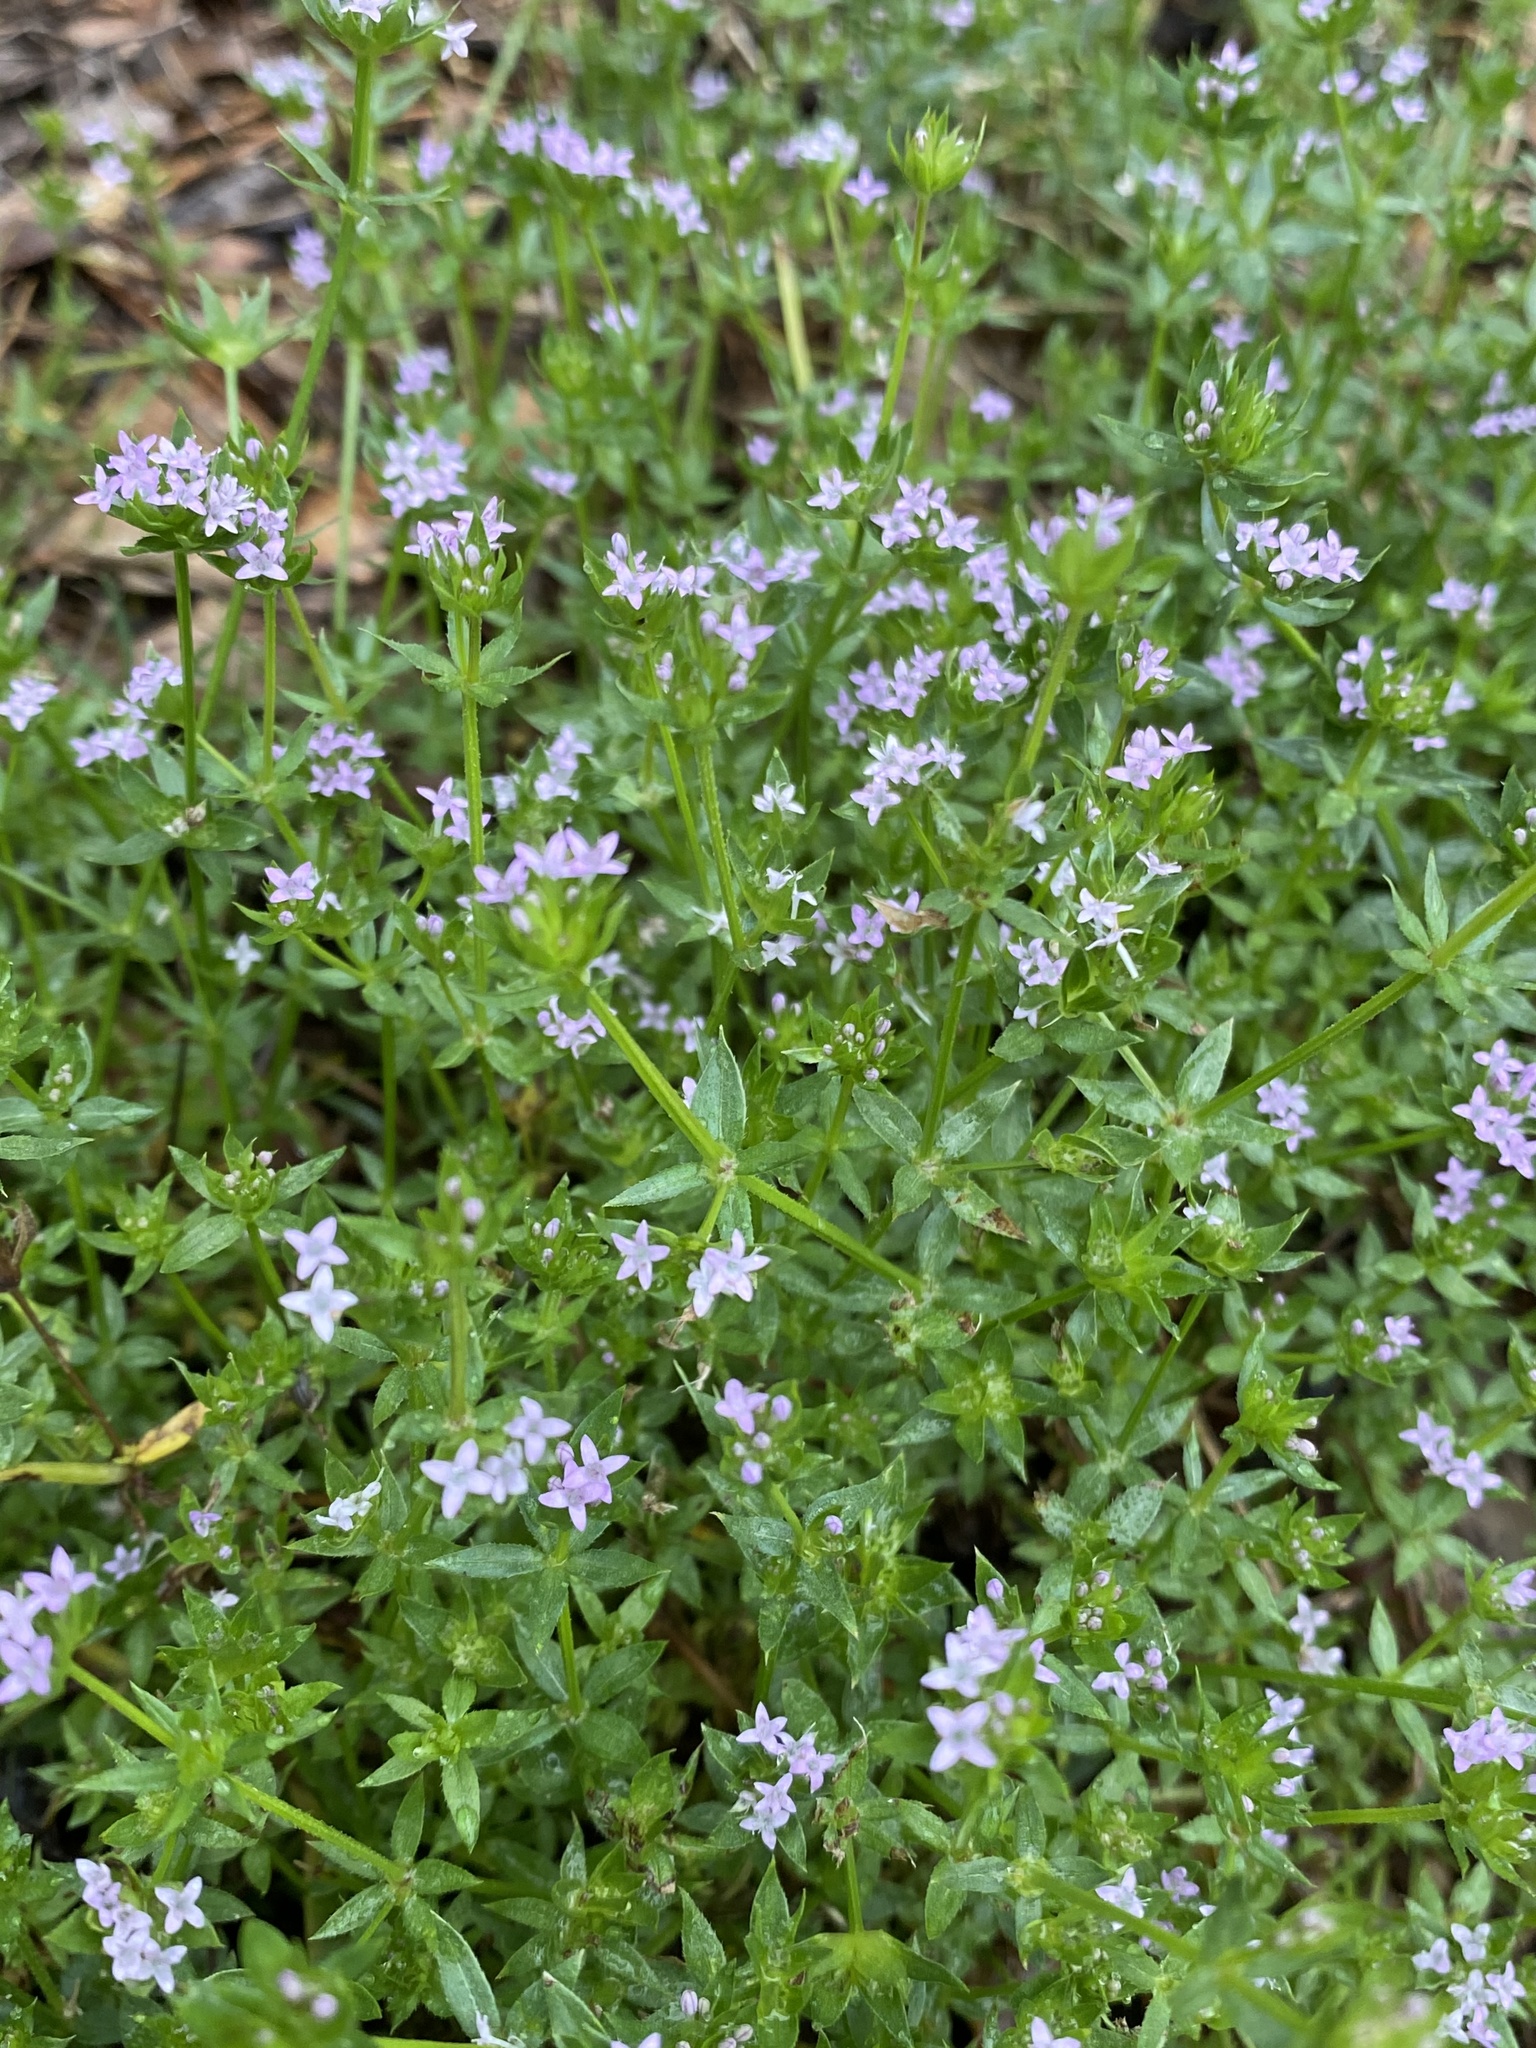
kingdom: Plantae
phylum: Tracheophyta
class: Magnoliopsida
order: Gentianales
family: Rubiaceae
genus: Sherardia
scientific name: Sherardia arvensis
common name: Field madder
